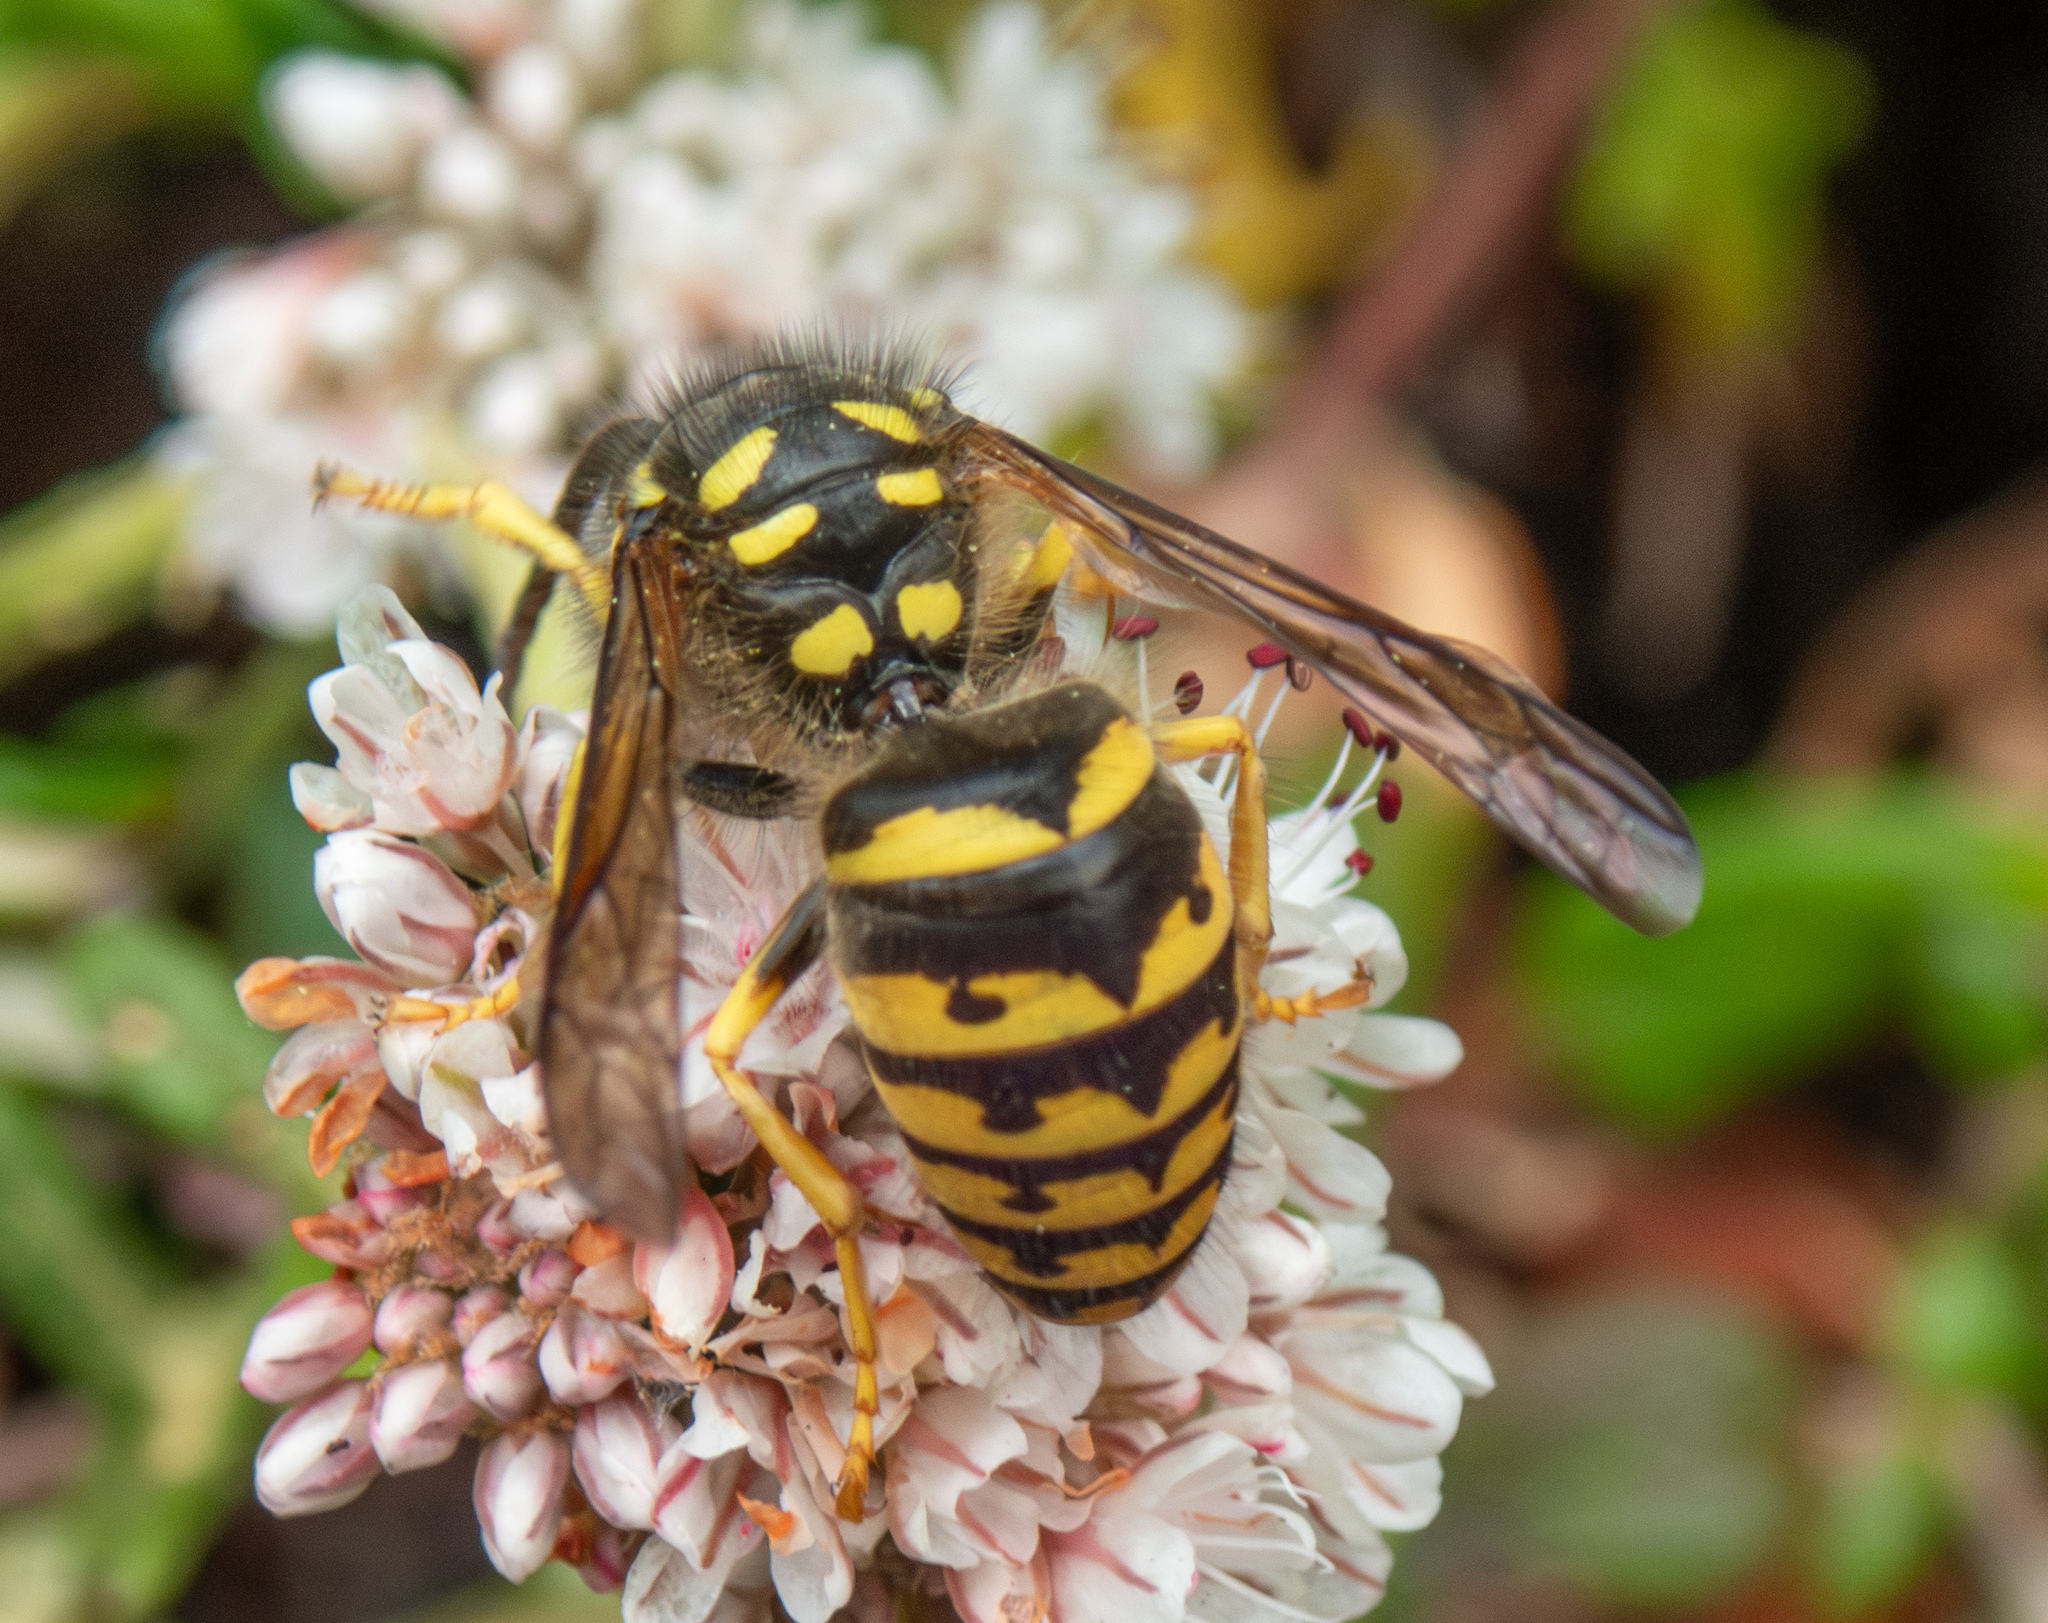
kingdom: Animalia
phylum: Arthropoda
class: Insecta
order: Hymenoptera
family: Vespidae
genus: Dolichovespula
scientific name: Dolichovespula arenaria
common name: Aerial yellowjacket
